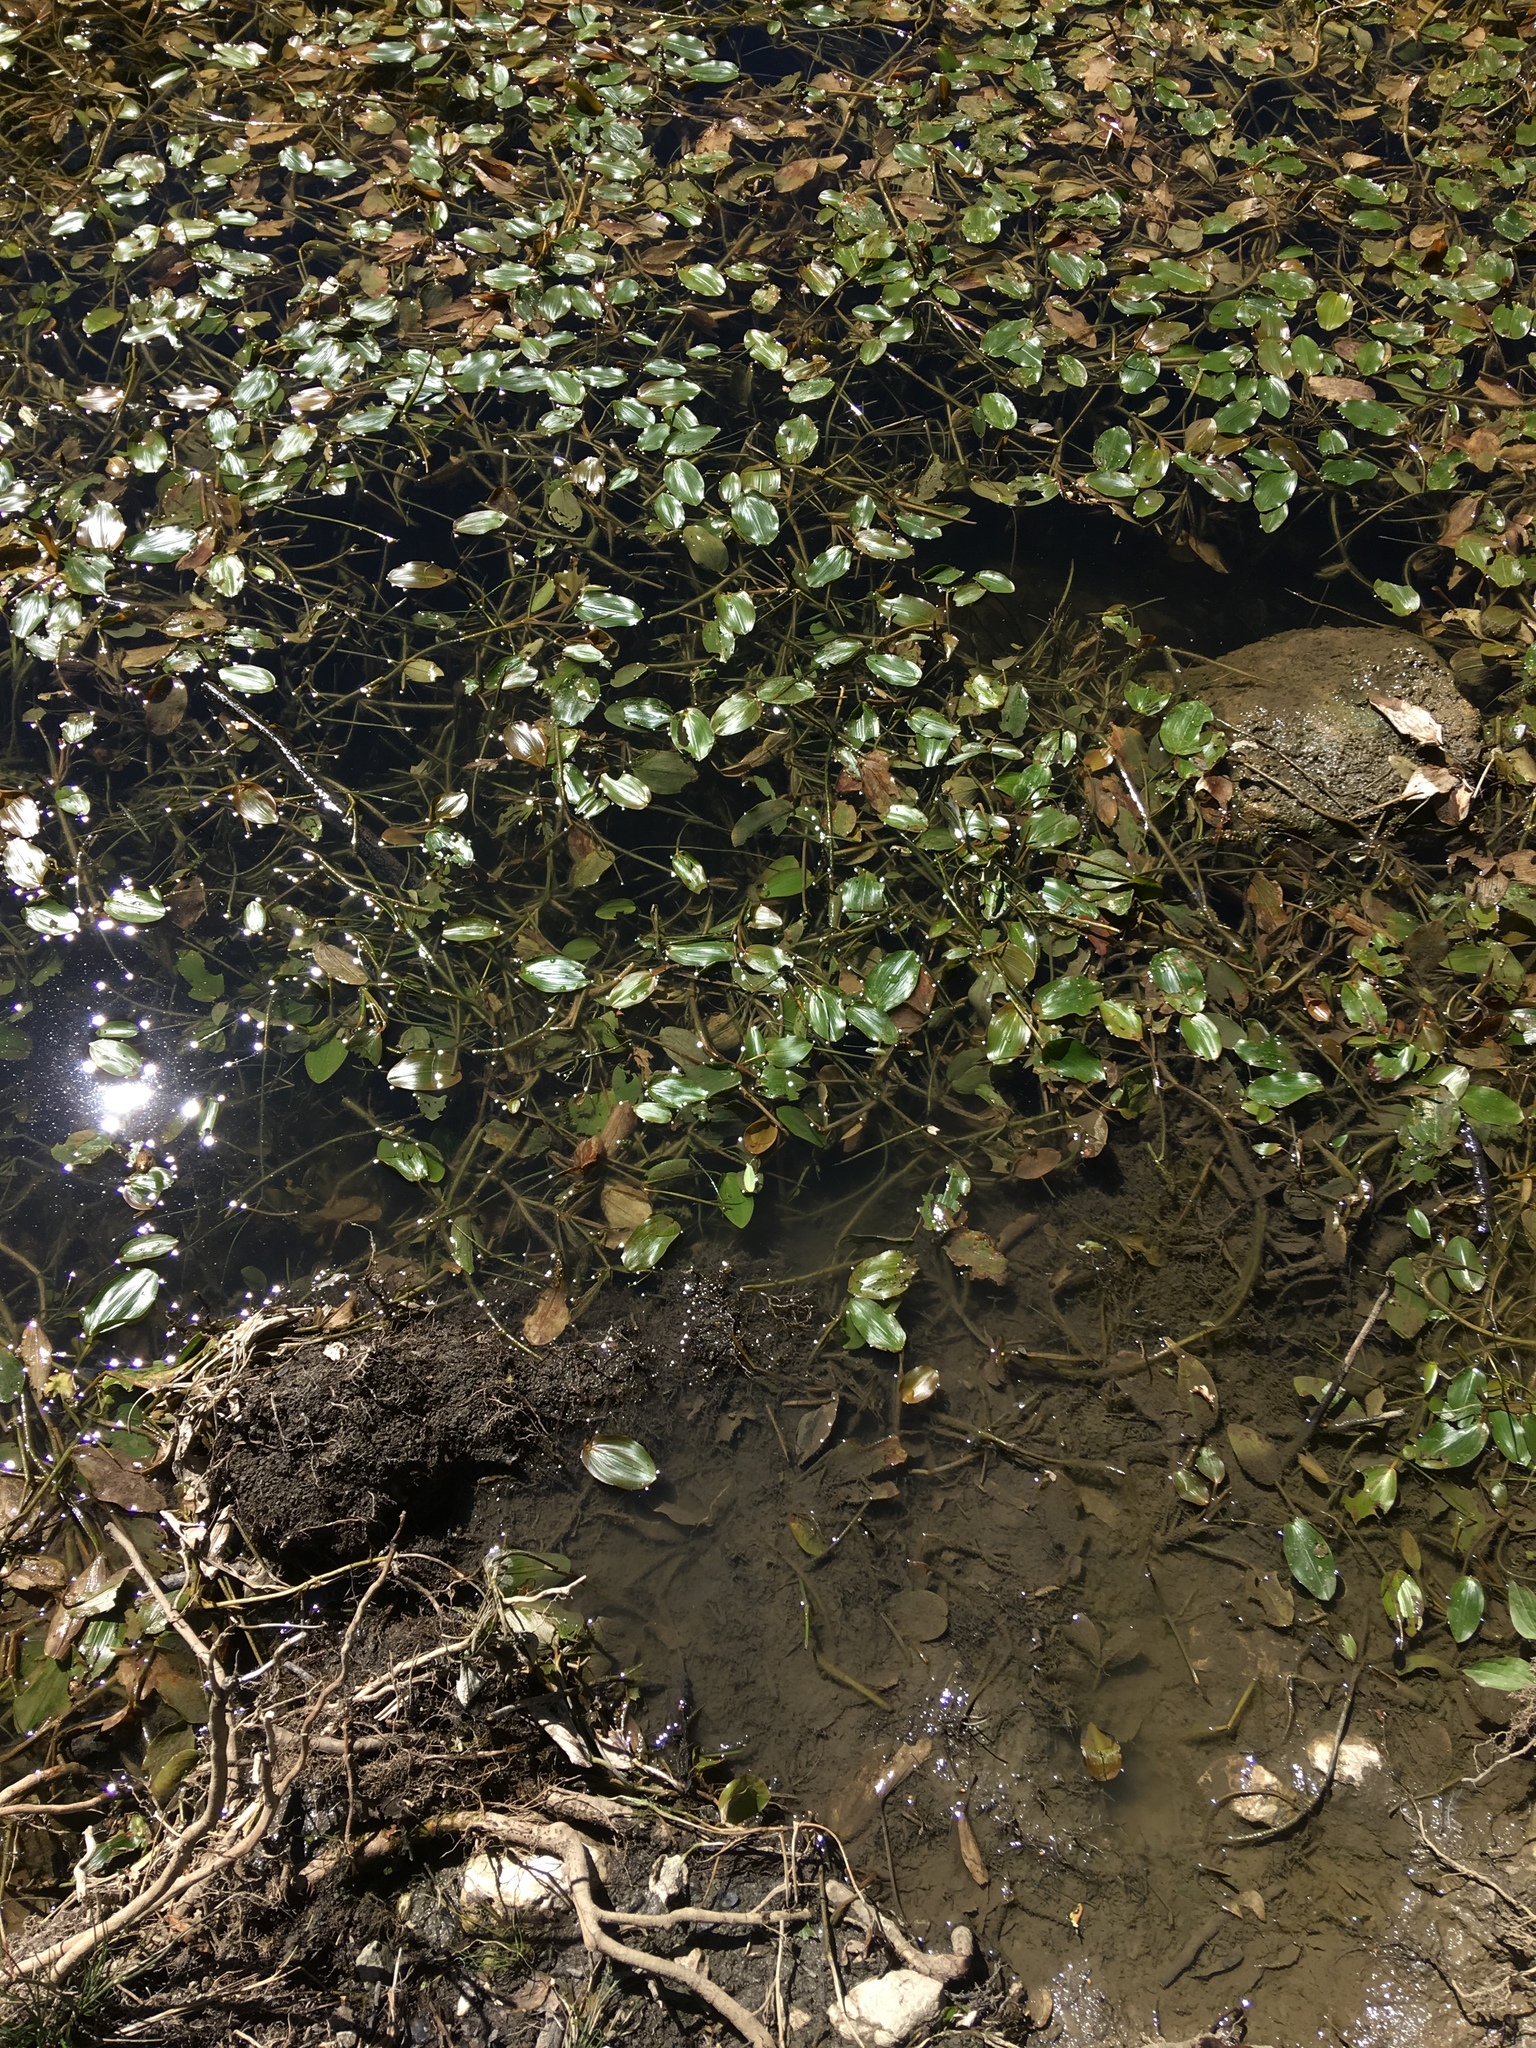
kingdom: Plantae
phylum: Tracheophyta
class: Liliopsida
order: Alismatales
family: Potamogetonaceae
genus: Potamogeton
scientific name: Potamogeton natans
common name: Broad-leaved pondweed
